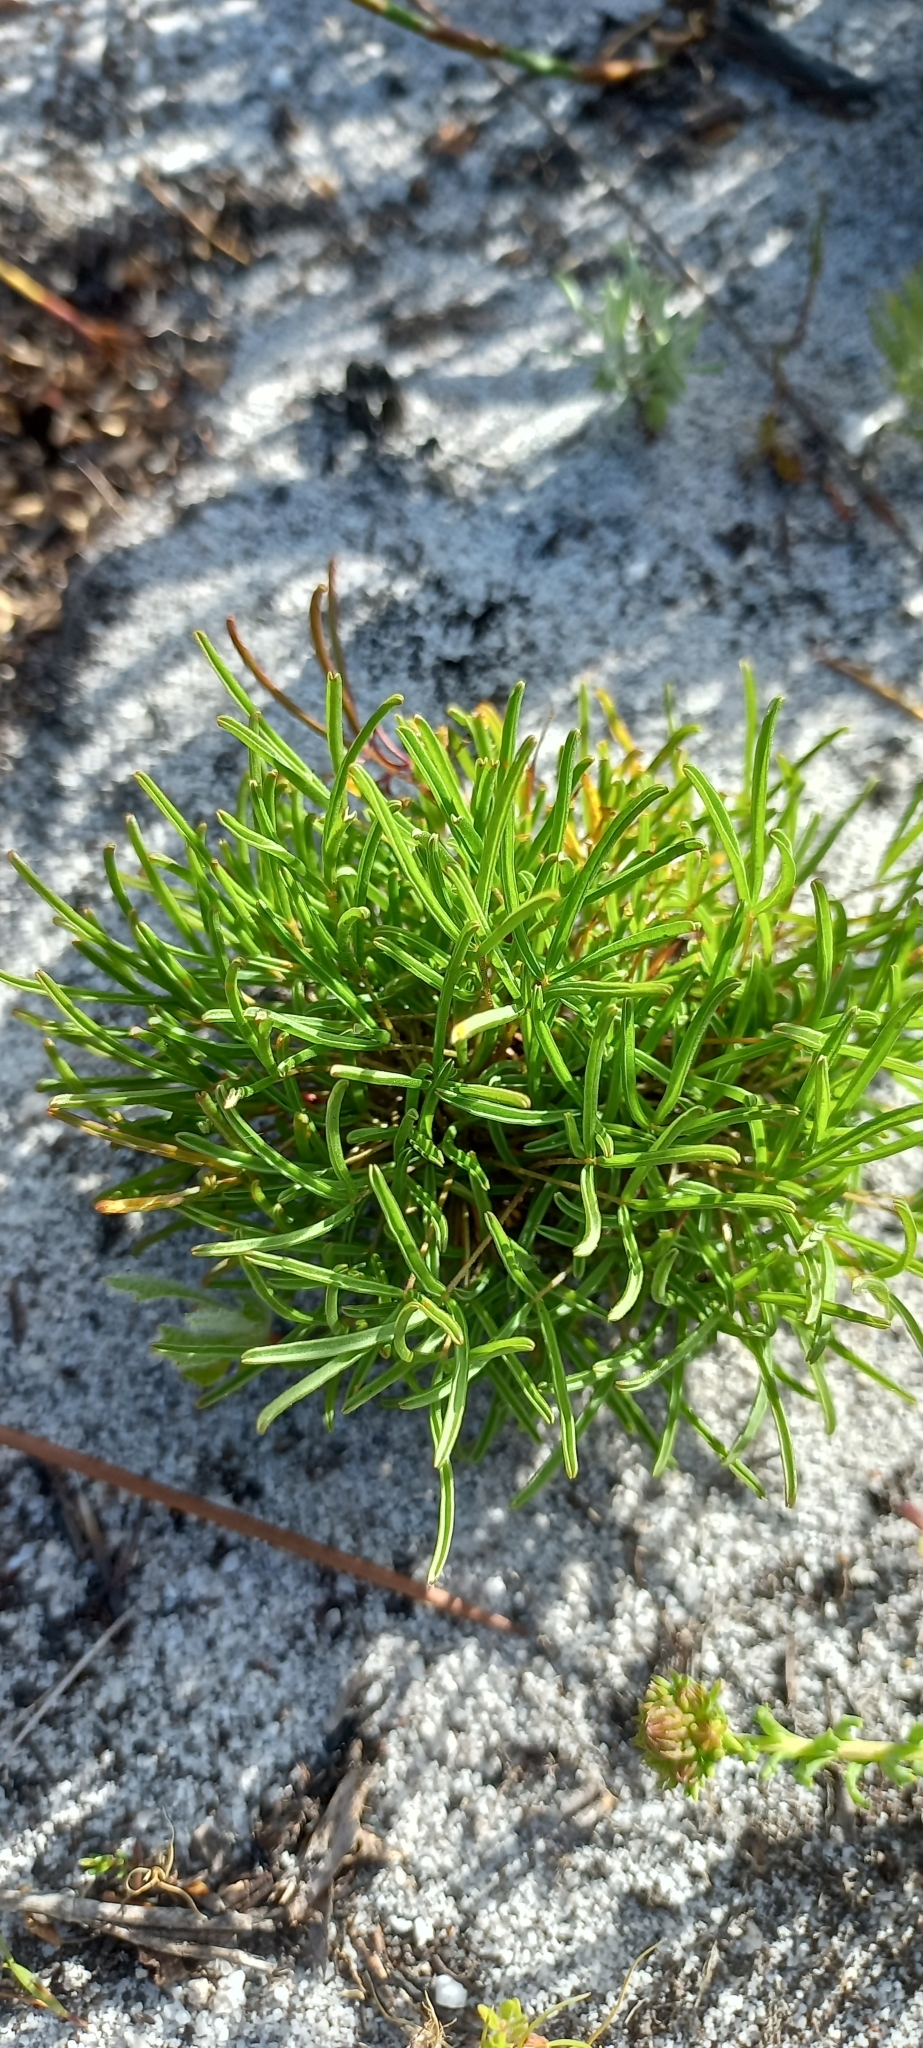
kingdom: Plantae
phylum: Tracheophyta
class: Magnoliopsida
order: Oxalidales
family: Oxalidaceae
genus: Oxalis
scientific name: Oxalis polyphylla
